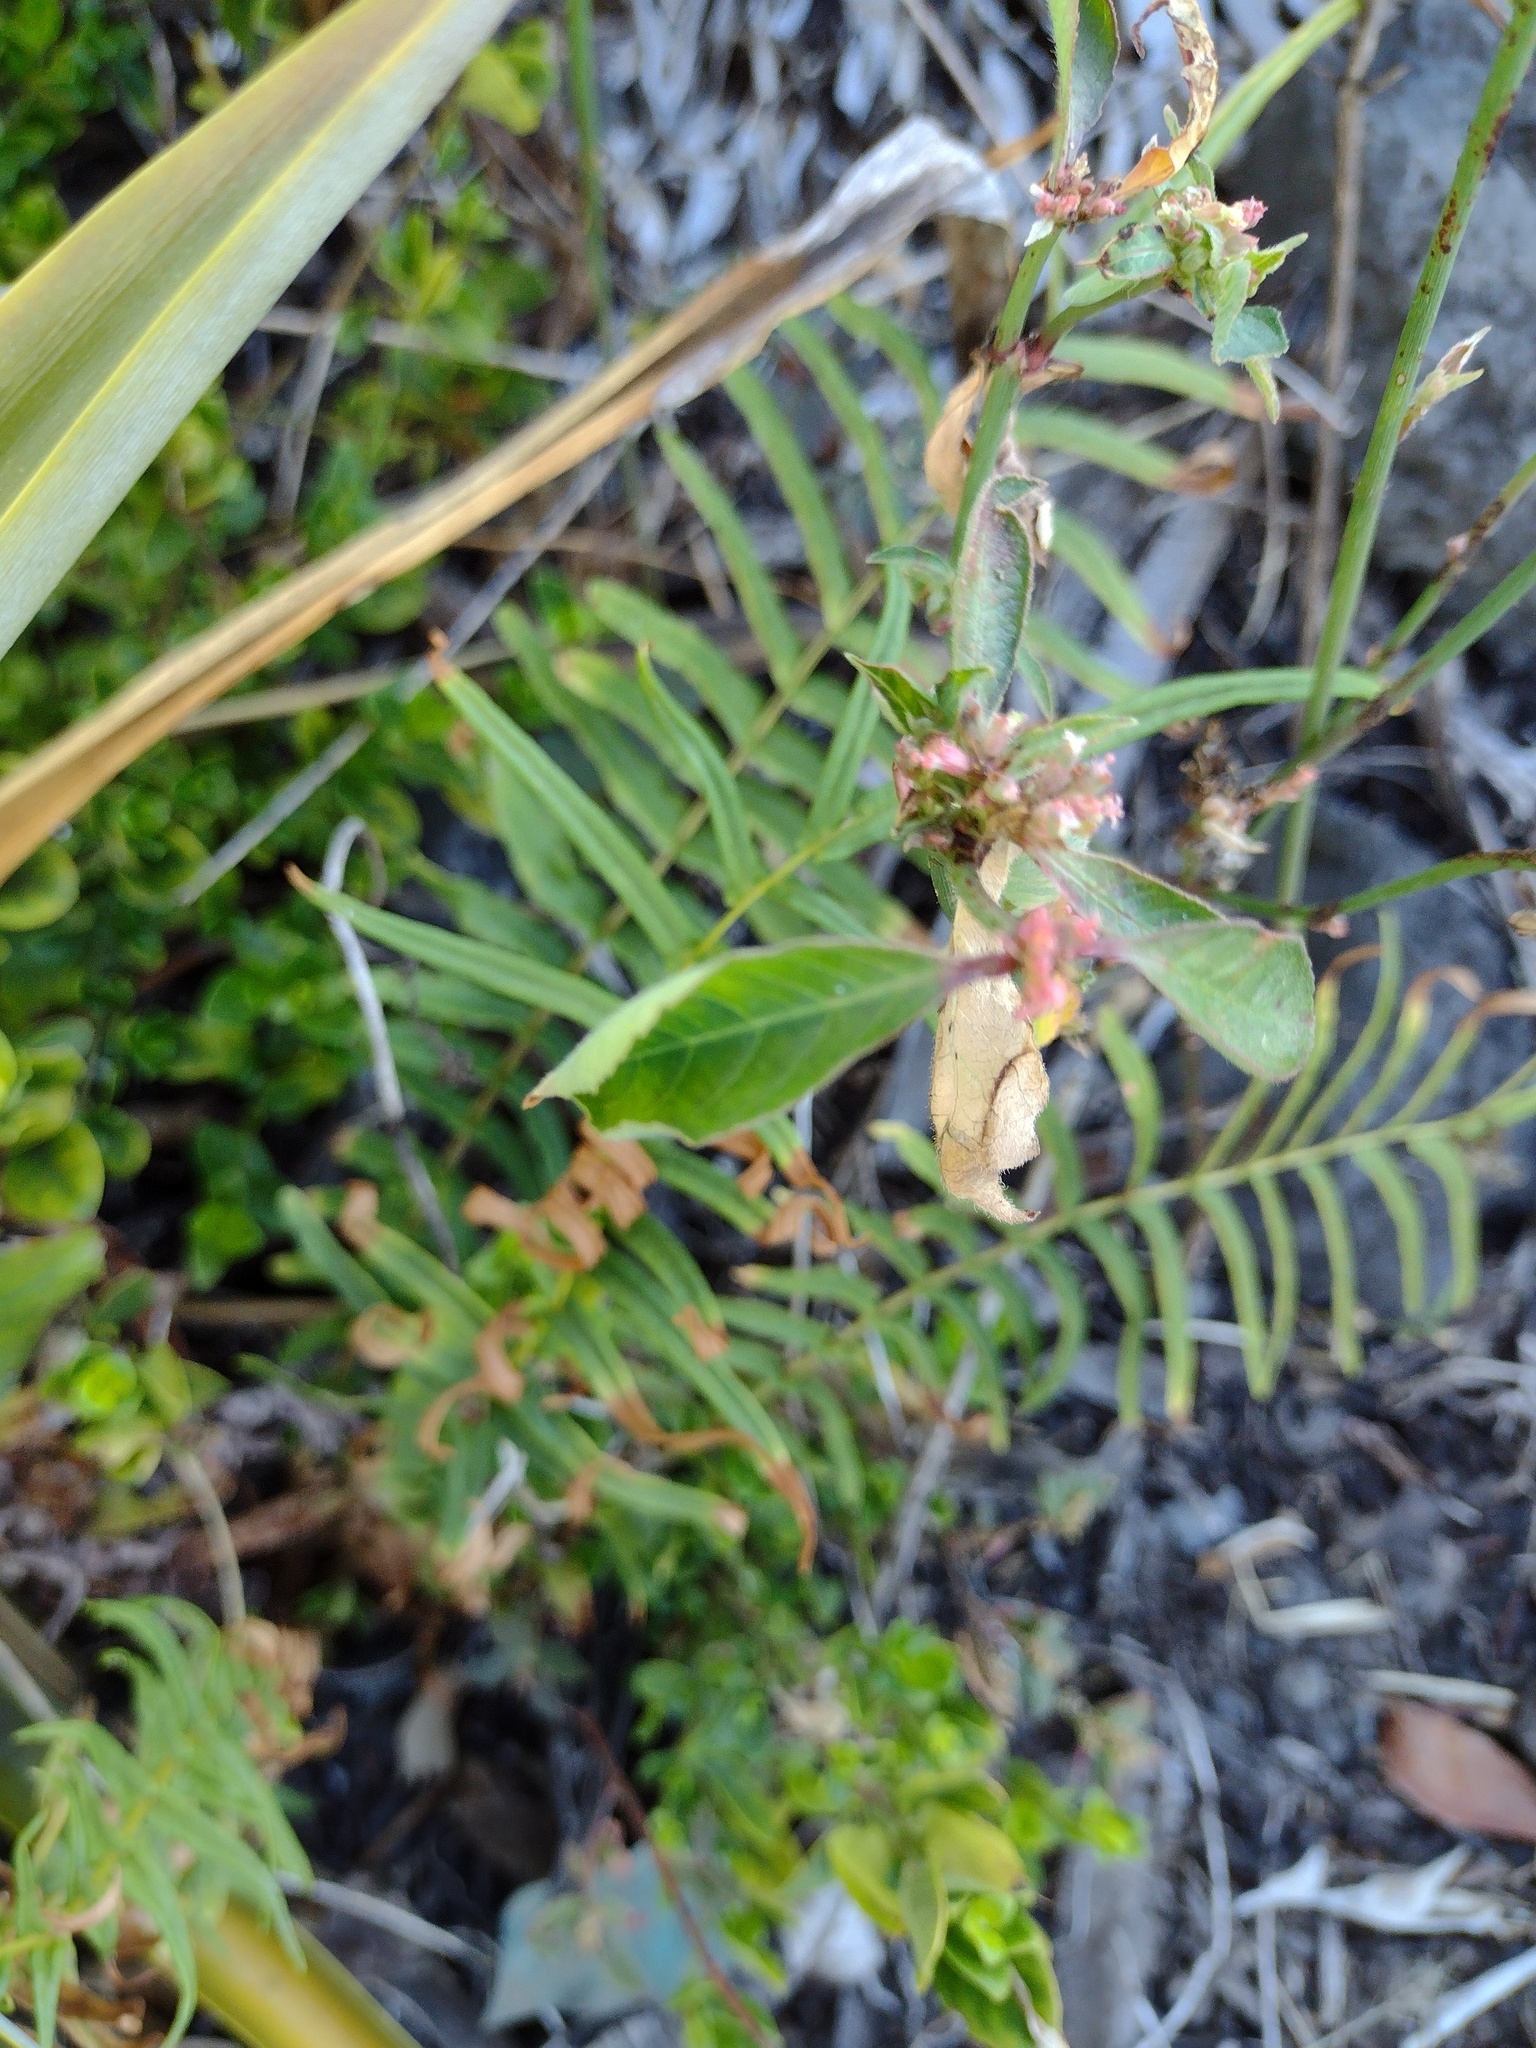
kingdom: Plantae
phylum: Tracheophyta
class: Polypodiopsida
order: Polypodiales
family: Pteridaceae
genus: Pteris
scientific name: Pteris vittata
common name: Ladder brake
